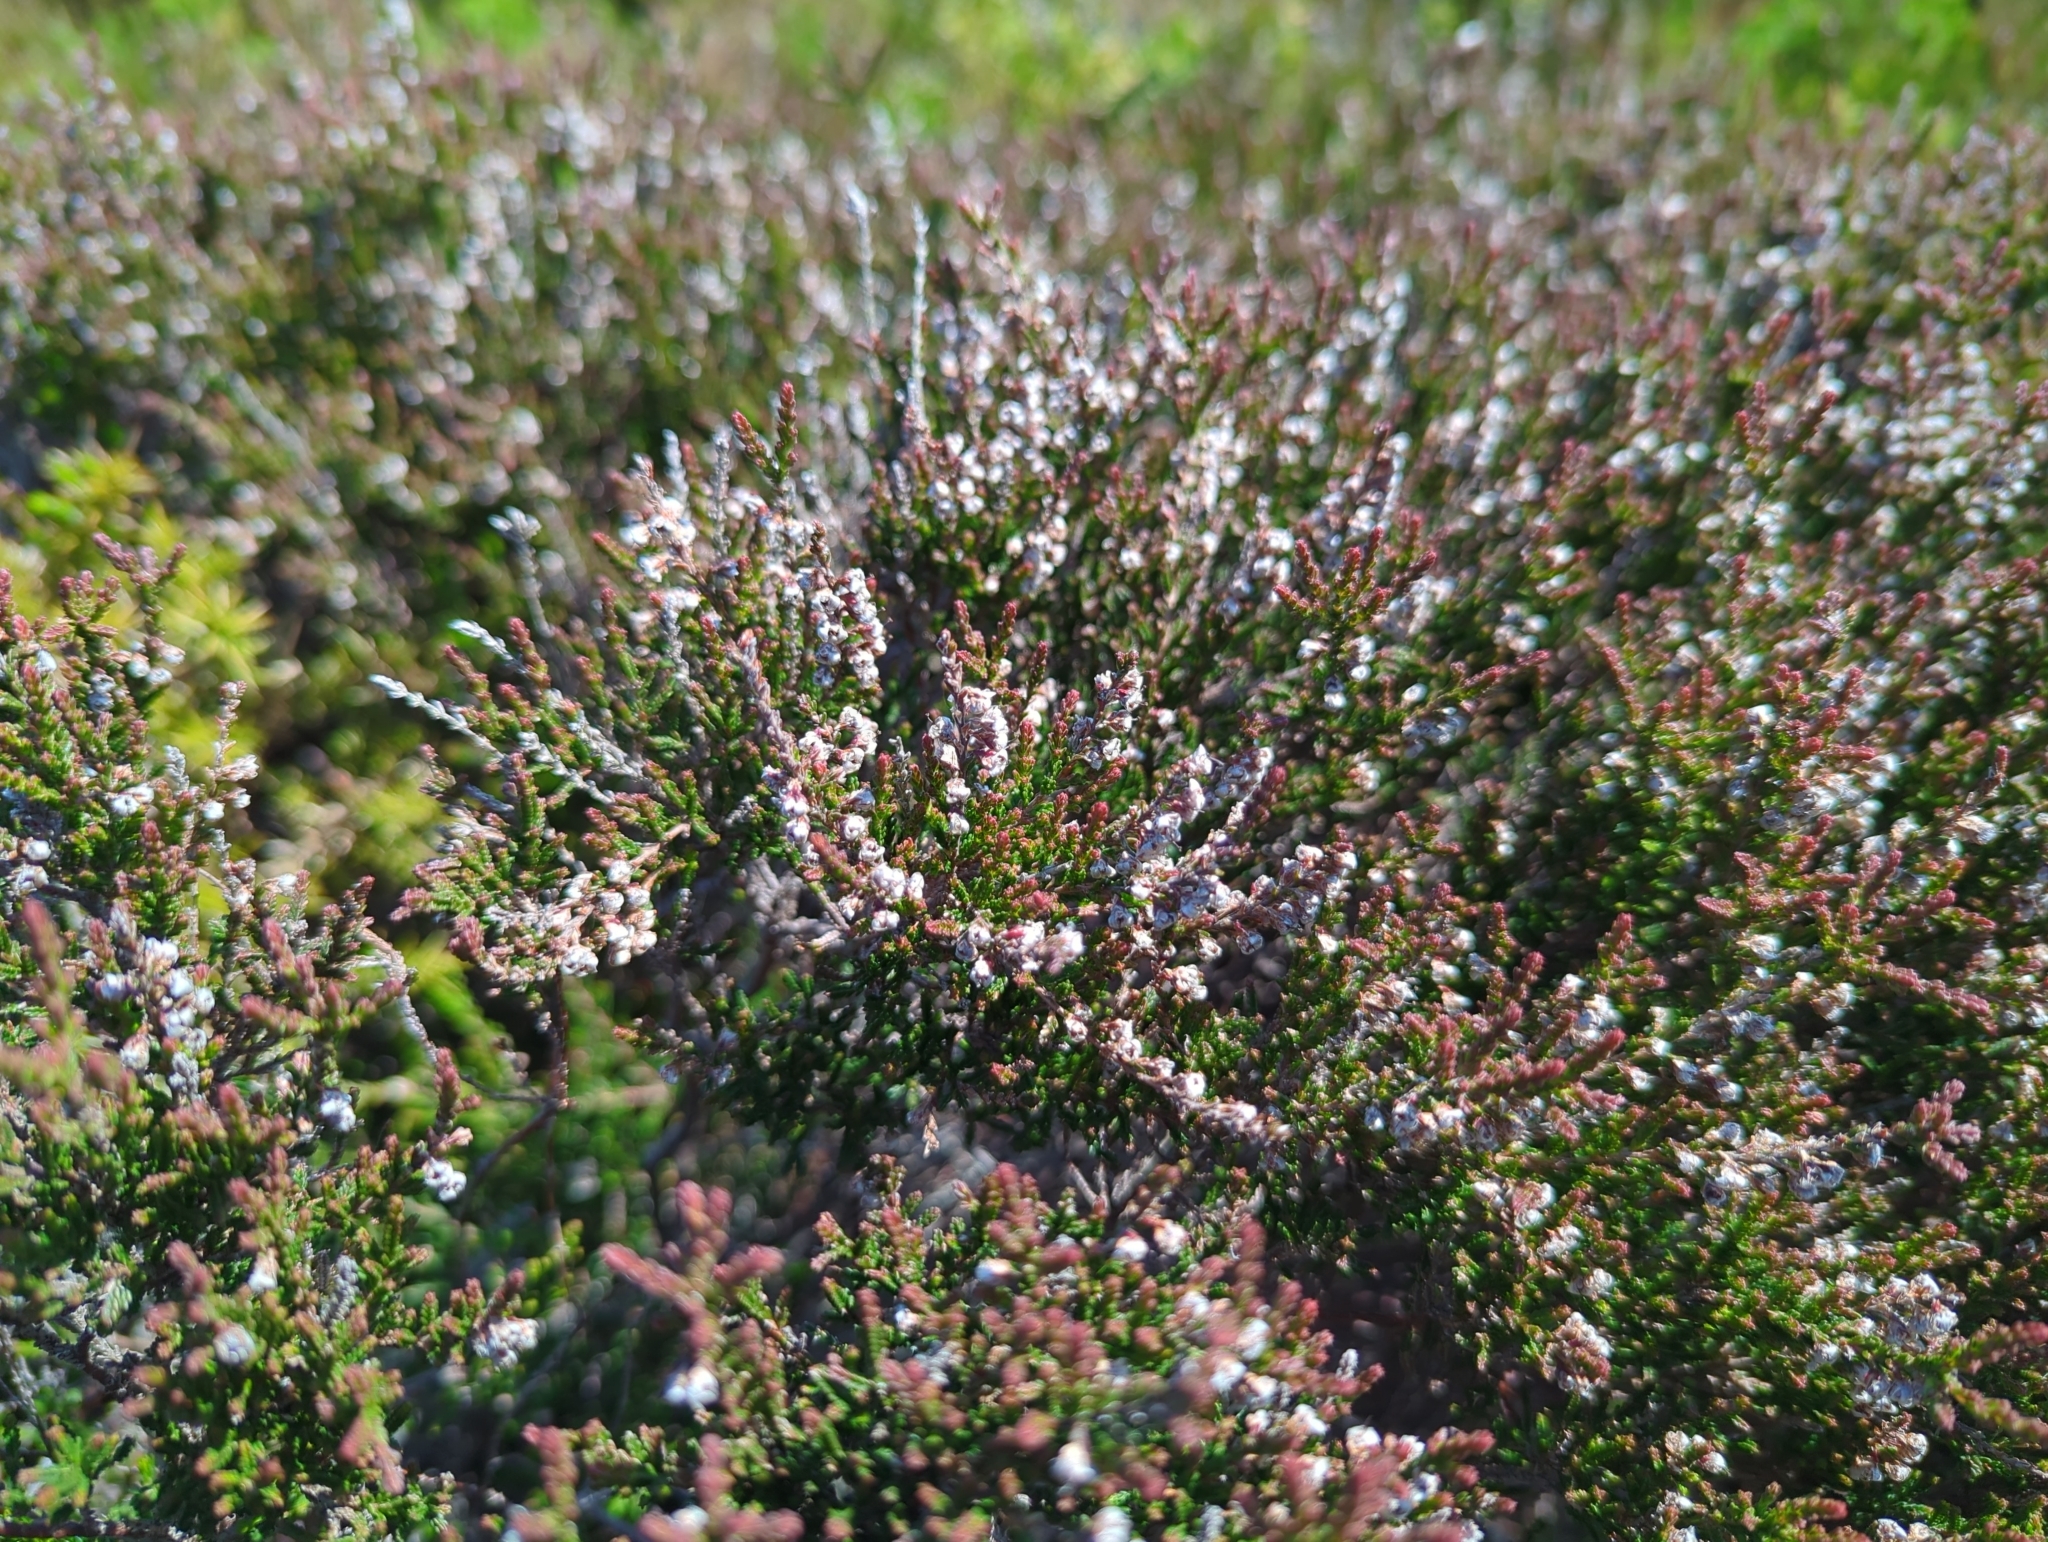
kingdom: Plantae
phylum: Tracheophyta
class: Magnoliopsida
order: Ericales
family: Ericaceae
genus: Calluna
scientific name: Calluna vulgaris
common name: Heather
